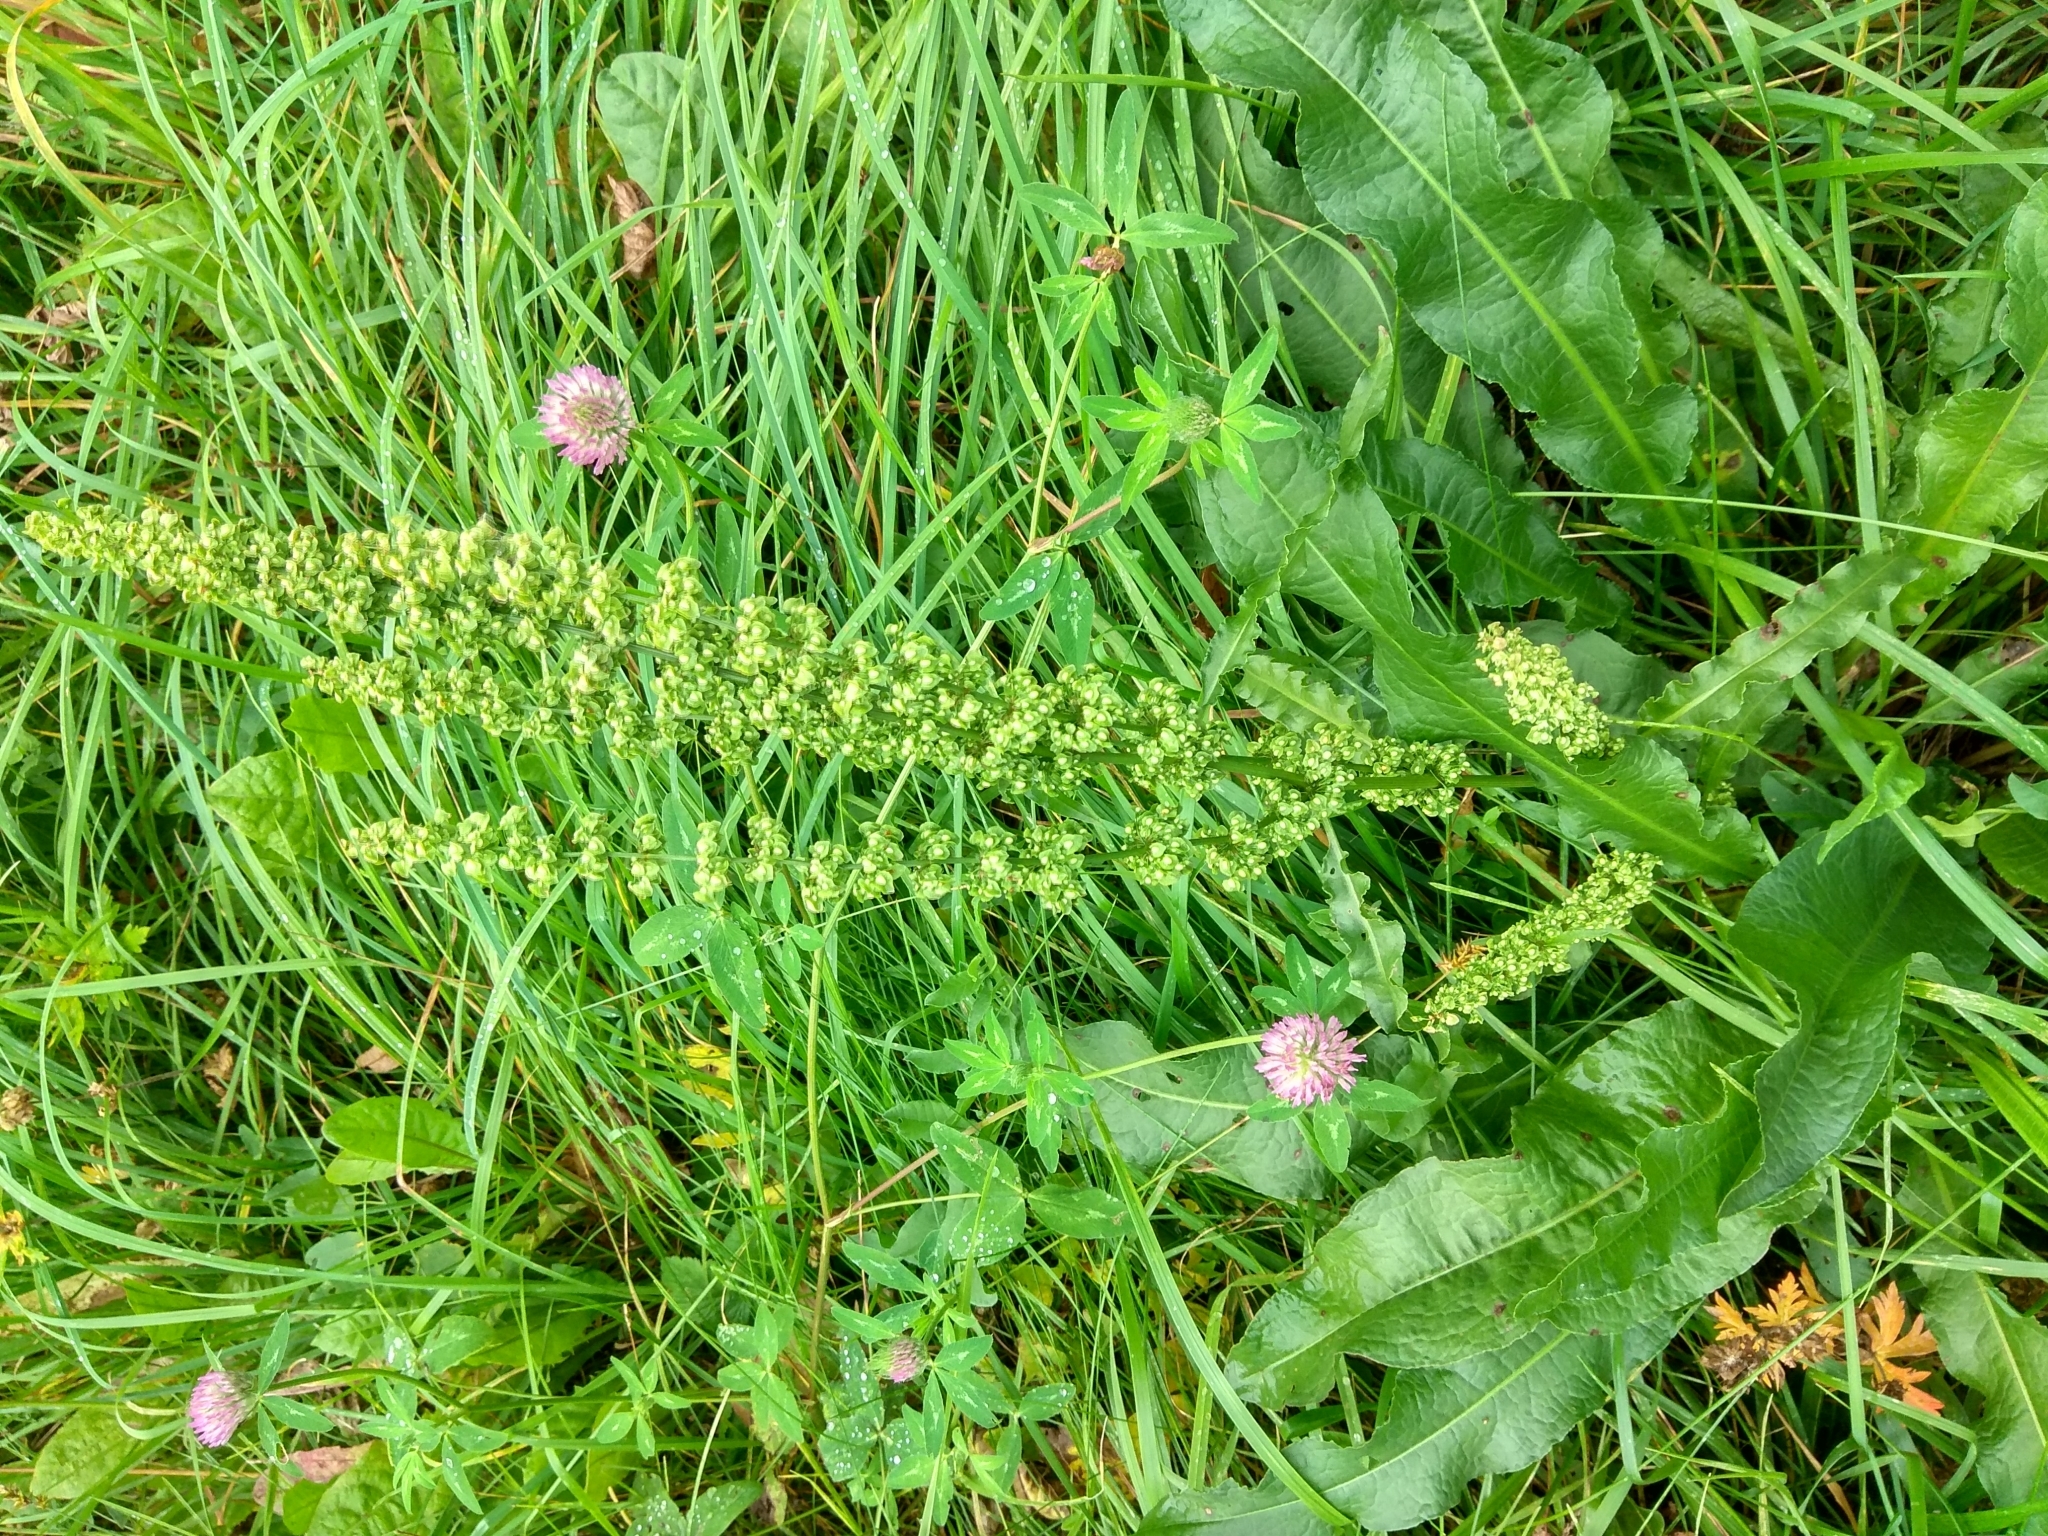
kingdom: Plantae
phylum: Tracheophyta
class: Magnoliopsida
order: Caryophyllales
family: Polygonaceae
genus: Rumex
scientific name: Rumex crispus
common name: Curled dock
